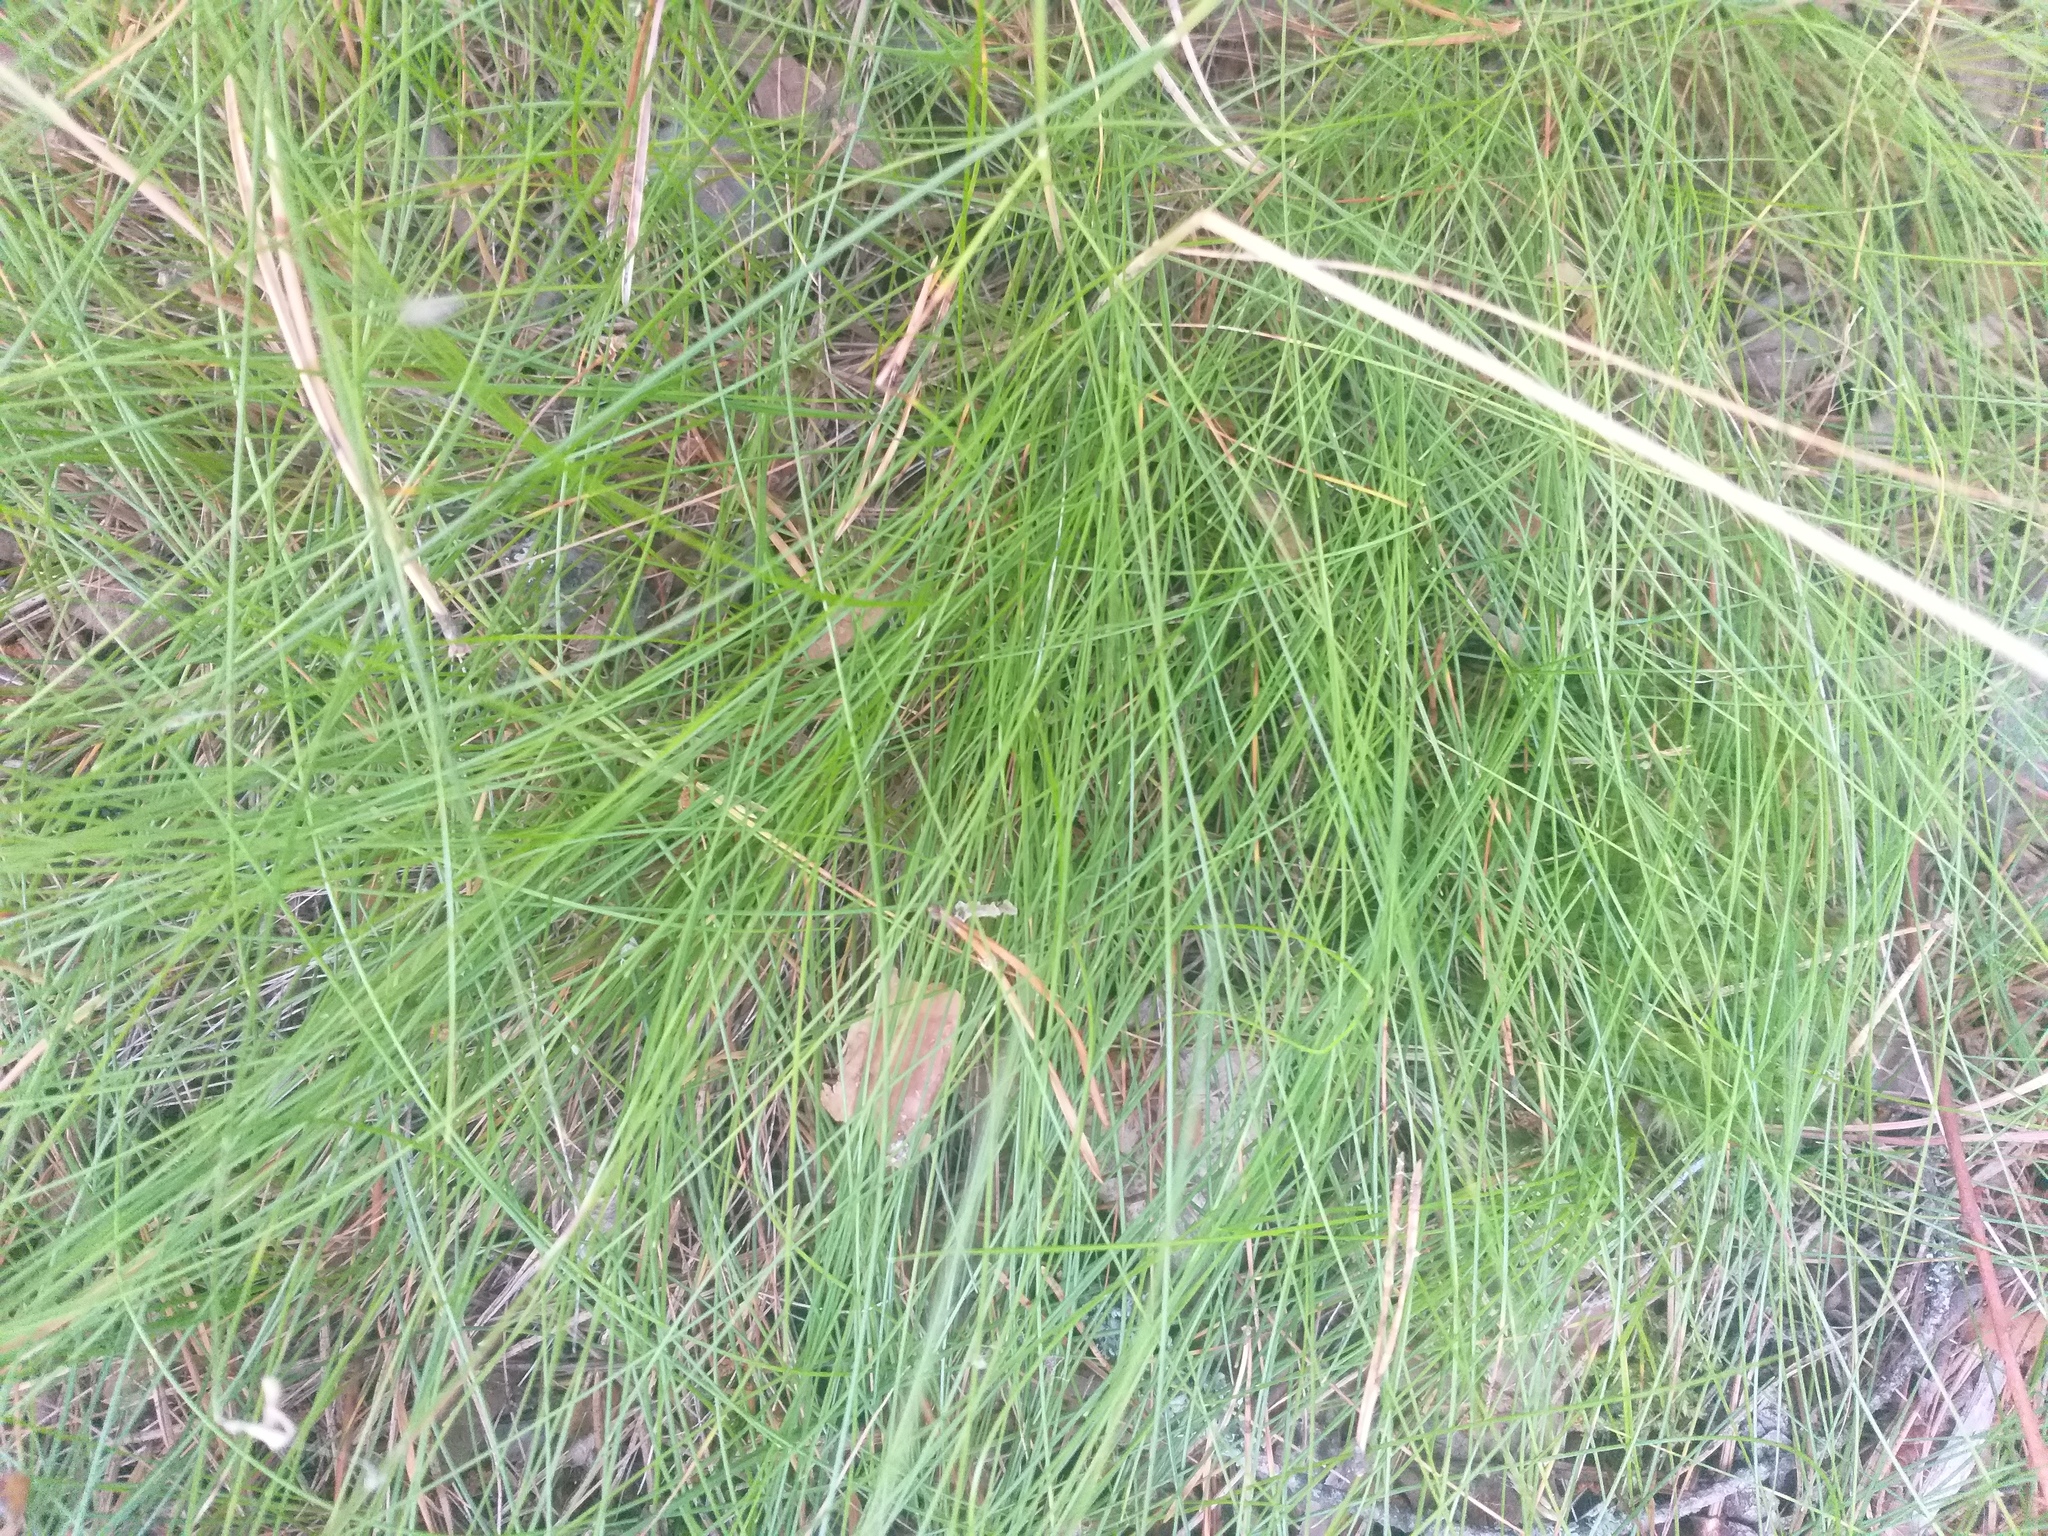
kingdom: Plantae
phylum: Tracheophyta
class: Liliopsida
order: Poales
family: Poaceae
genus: Avenella
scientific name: Avenella flexuosa
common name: Wavy hairgrass
